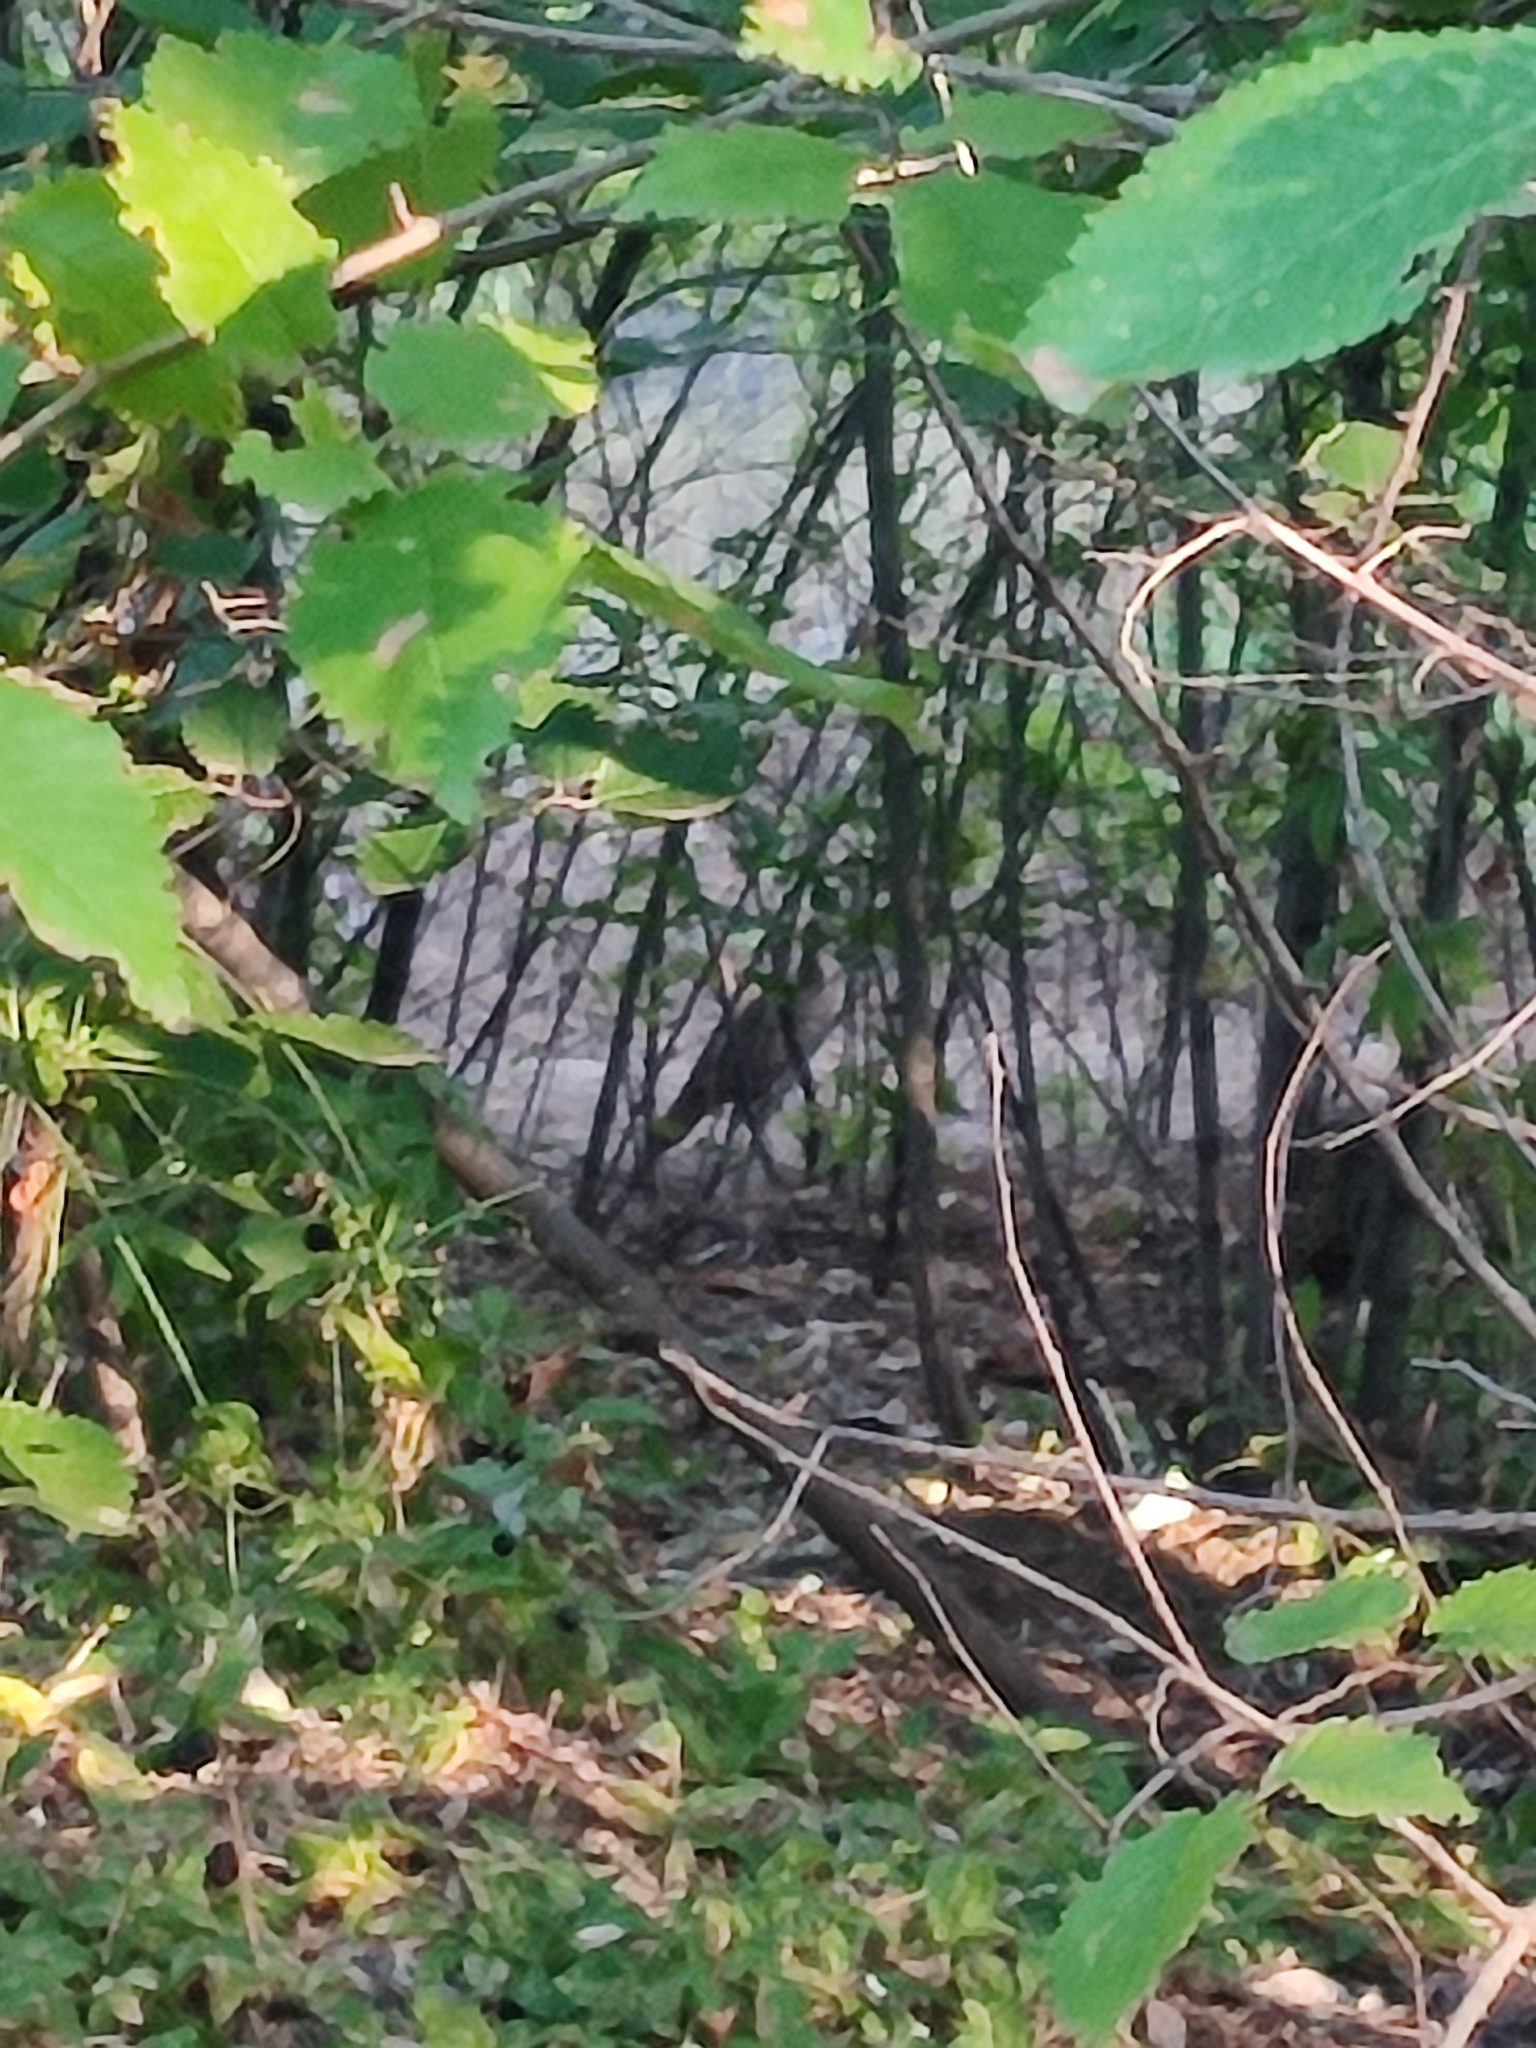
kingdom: Animalia
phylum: Chordata
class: Aves
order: Galliformes
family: Phasianidae
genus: Phasianus
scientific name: Phasianus colchicus
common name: Common pheasant
